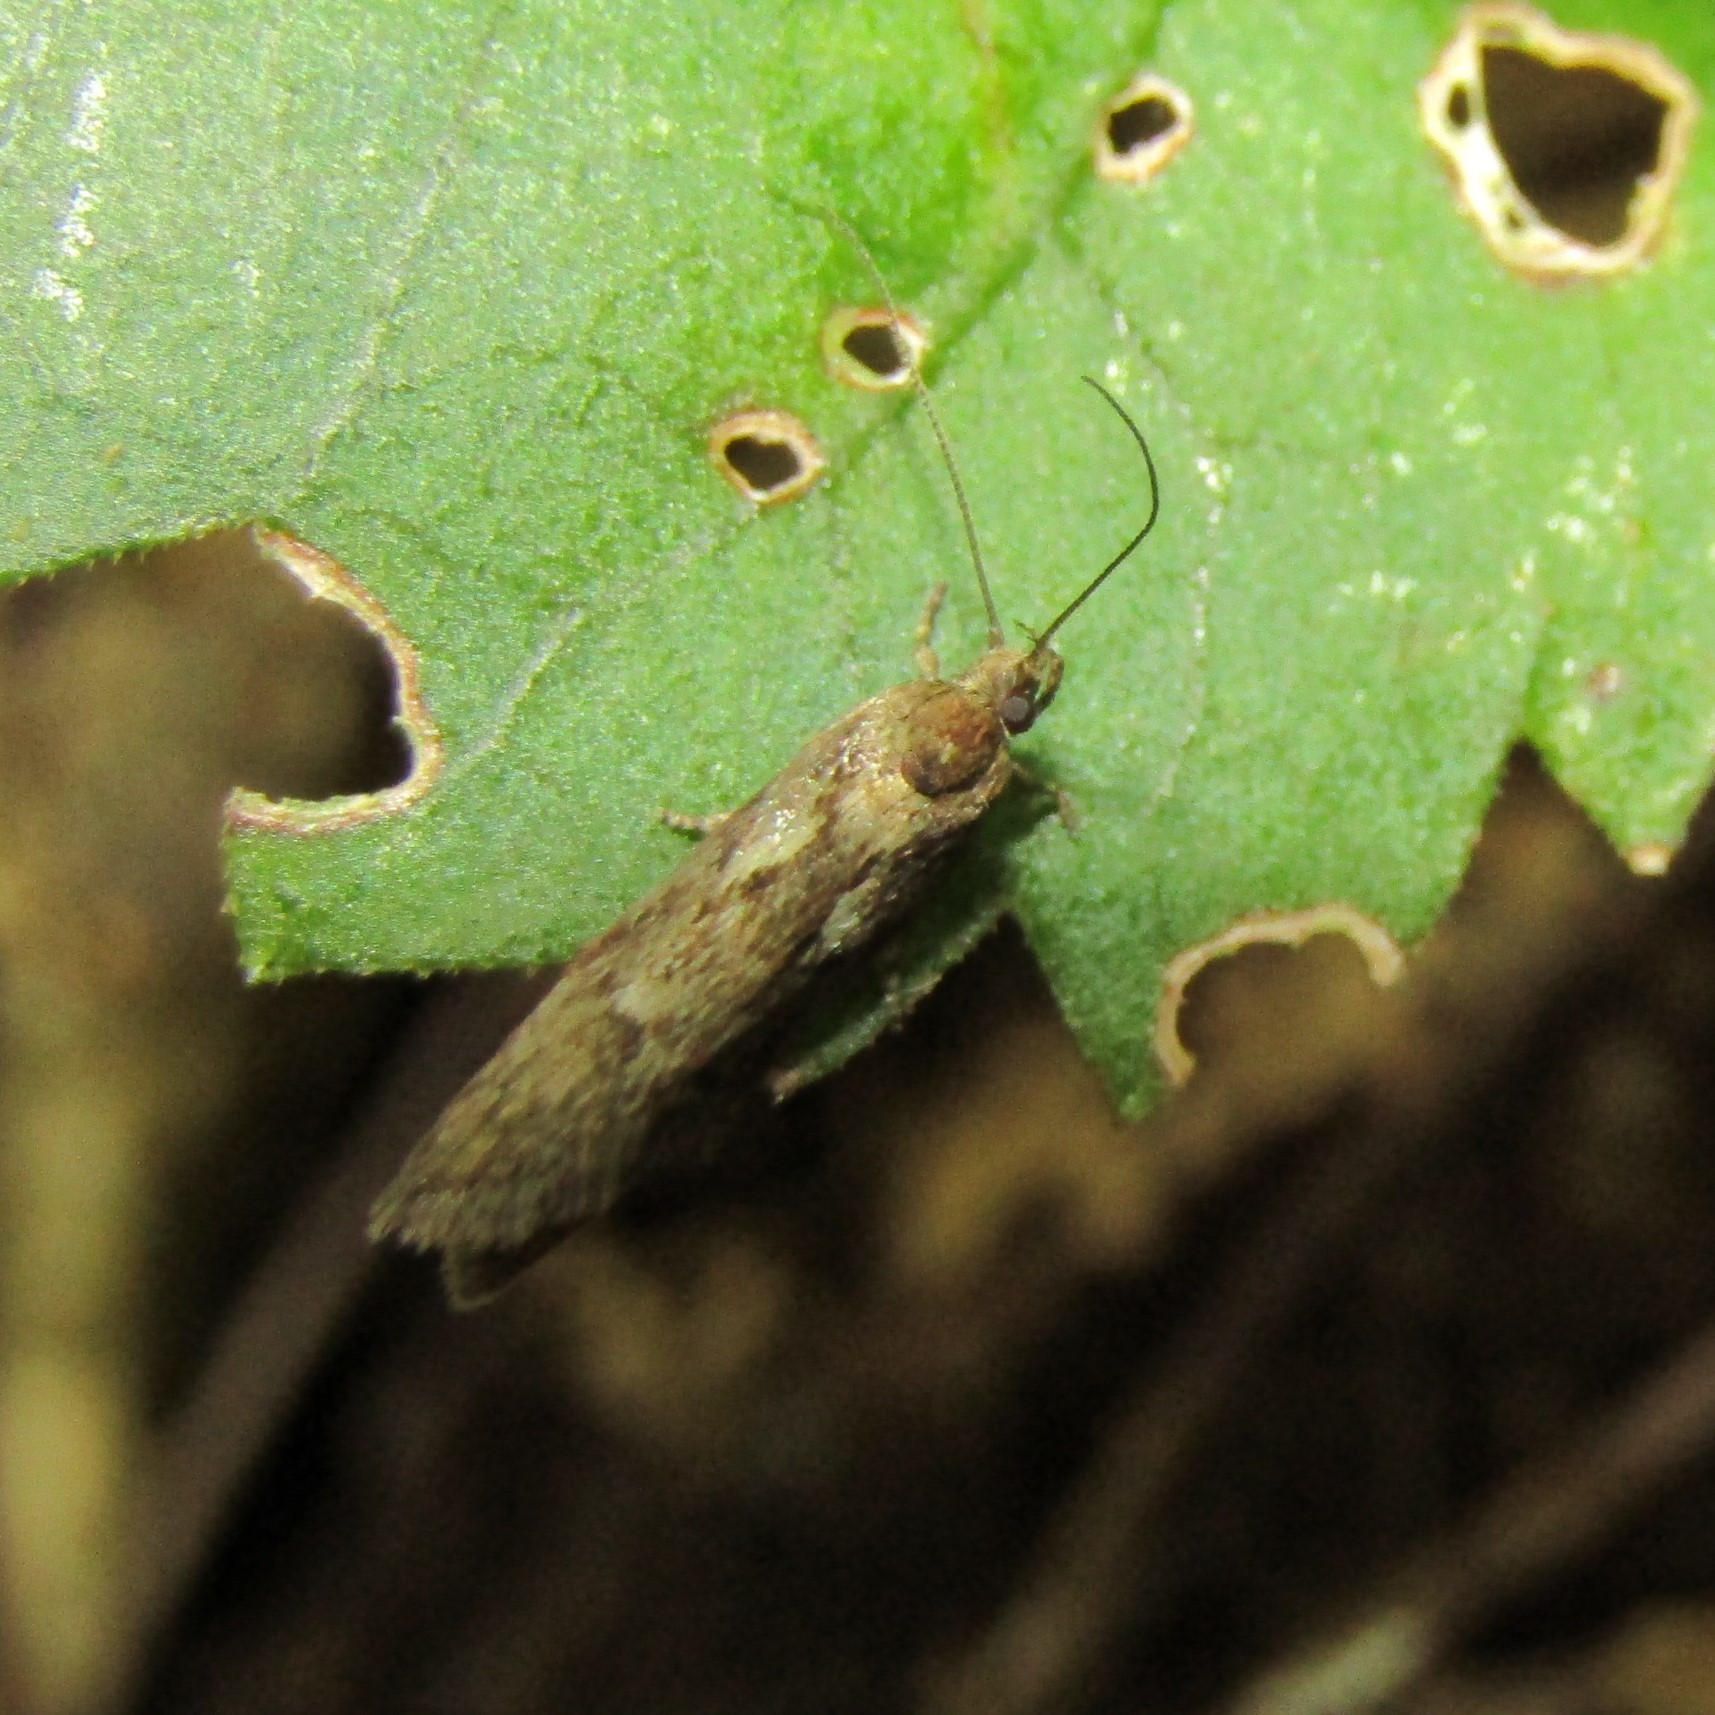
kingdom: Animalia
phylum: Arthropoda
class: Insecta
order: Lepidoptera
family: Oecophoridae
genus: Chersadaula
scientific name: Chersadaula ochrogastra
